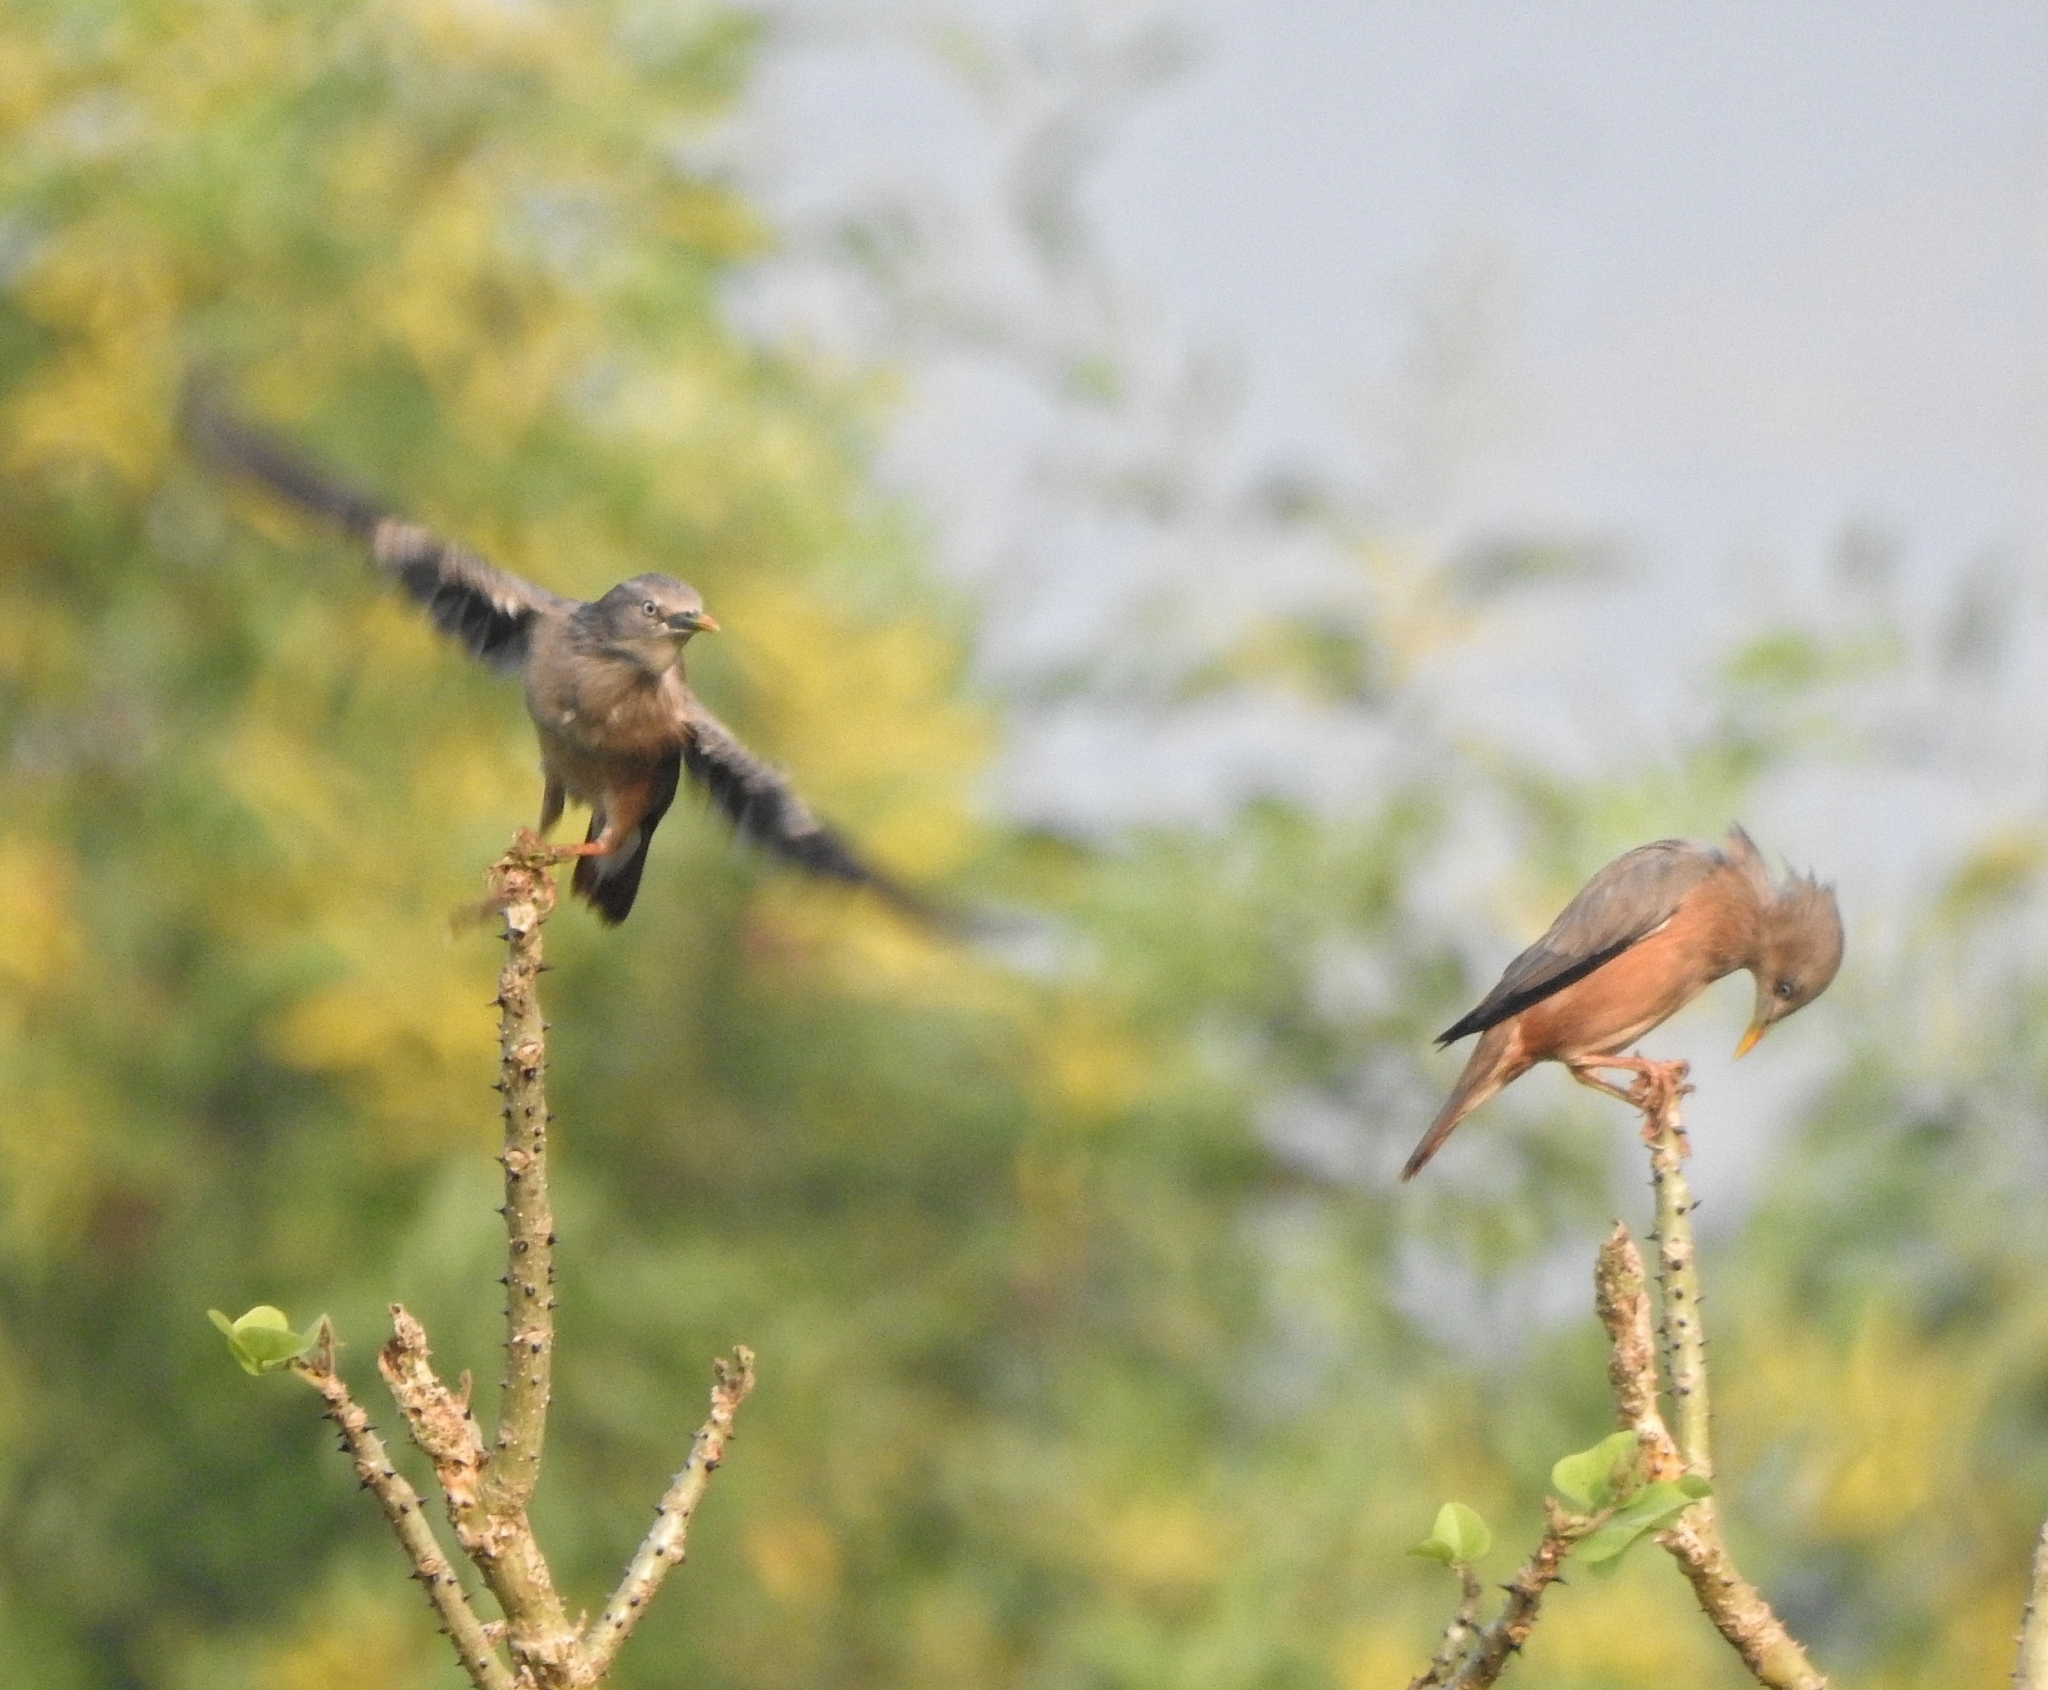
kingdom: Animalia
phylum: Chordata
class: Aves
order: Passeriformes
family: Sturnidae
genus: Sturnia
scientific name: Sturnia malabarica
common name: Chestnut-tailed starling
